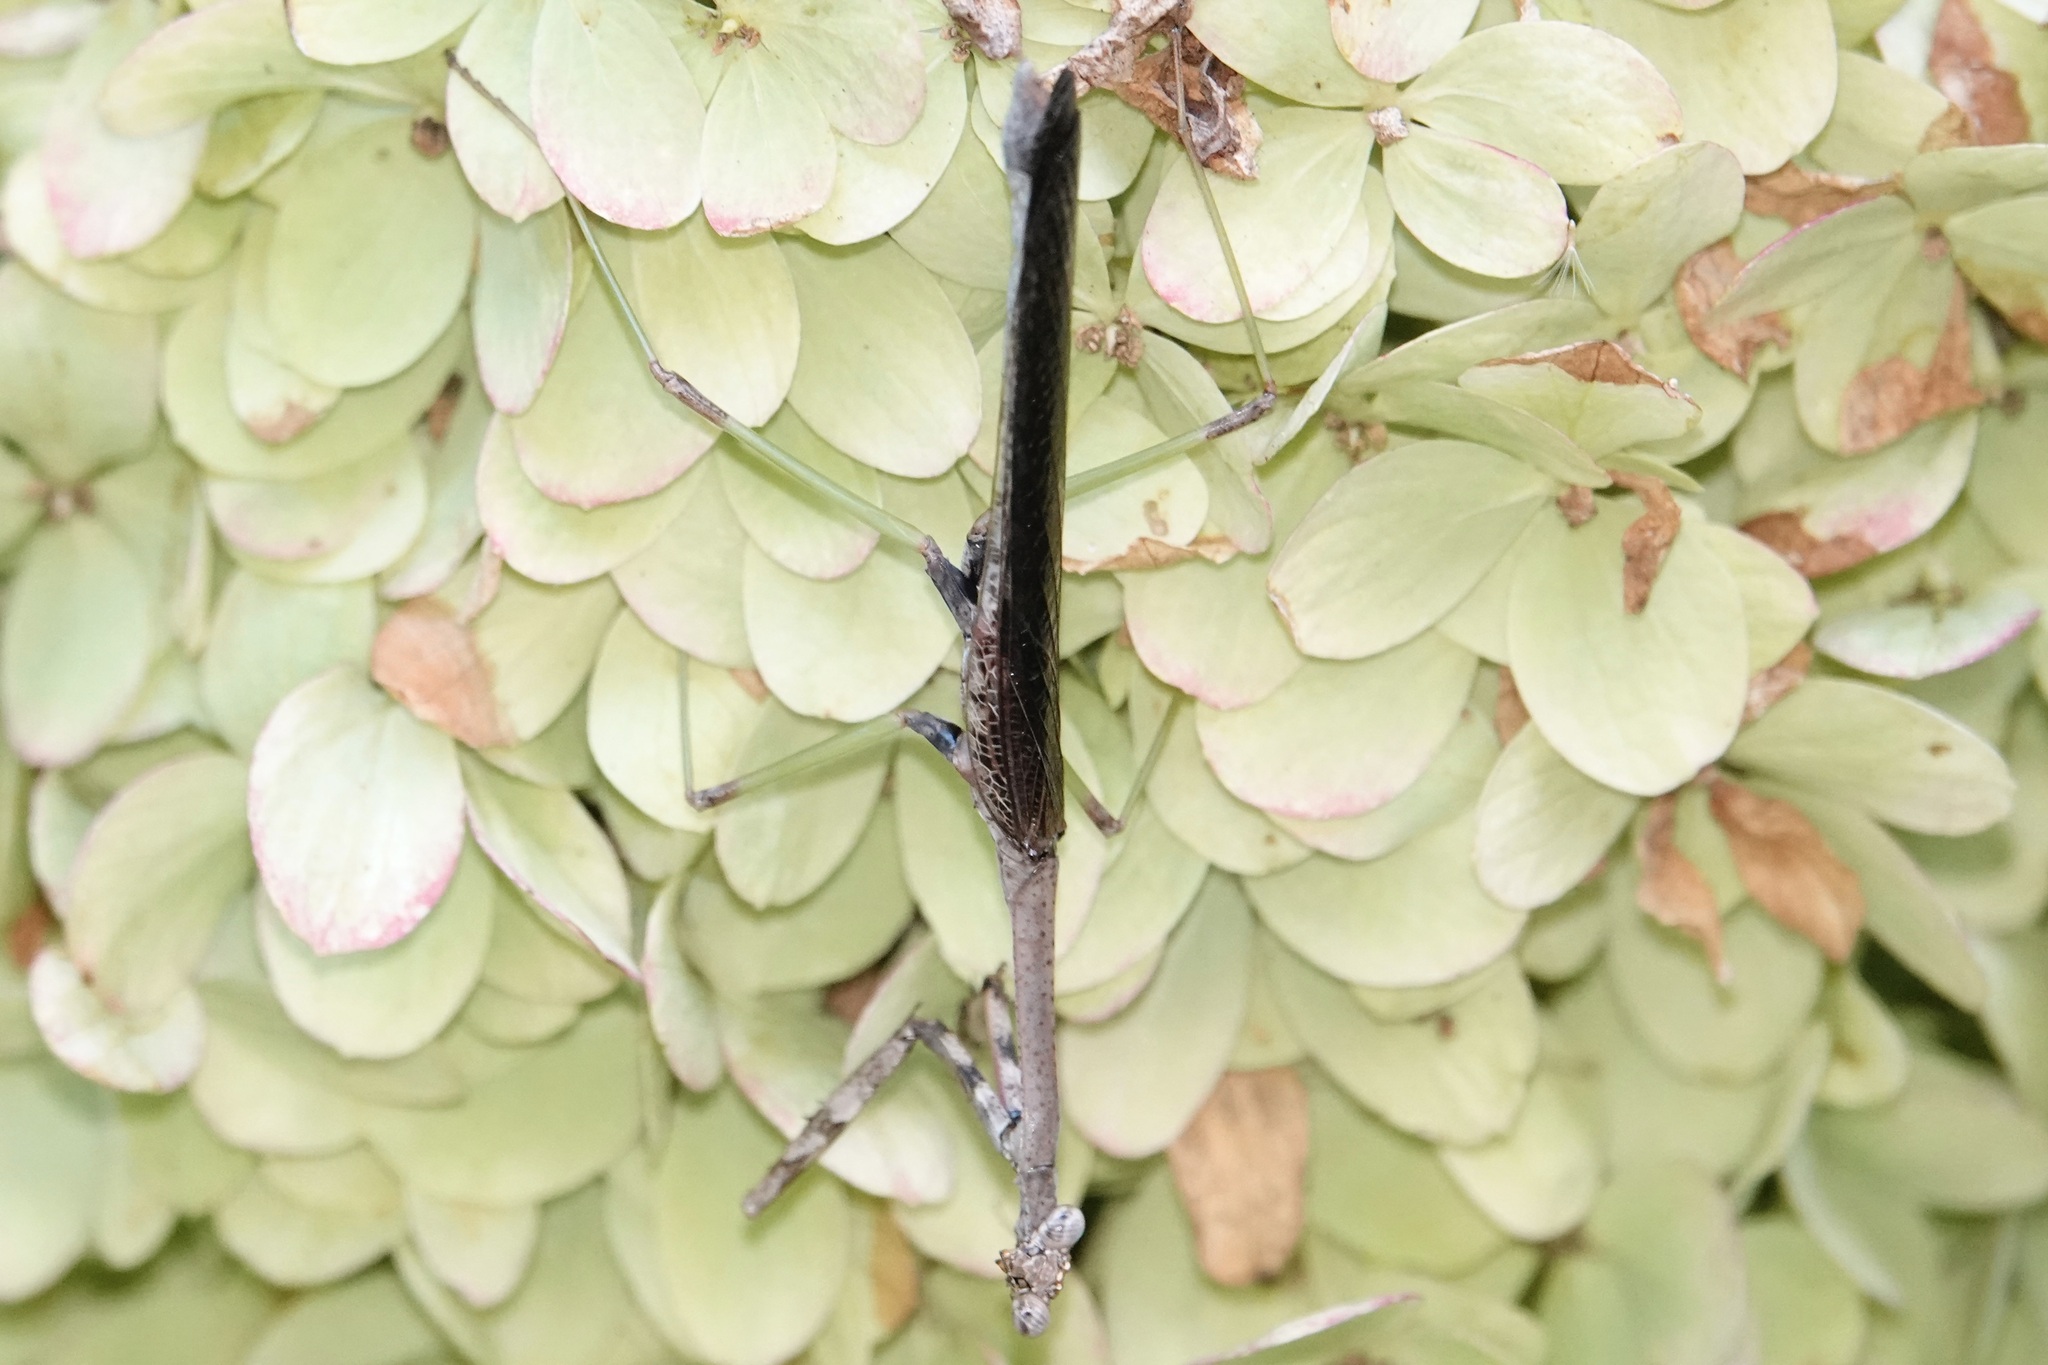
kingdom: Animalia
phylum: Arthropoda
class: Insecta
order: Mantodea
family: Mantidae
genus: Stagmomantis
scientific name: Stagmomantis carolina
